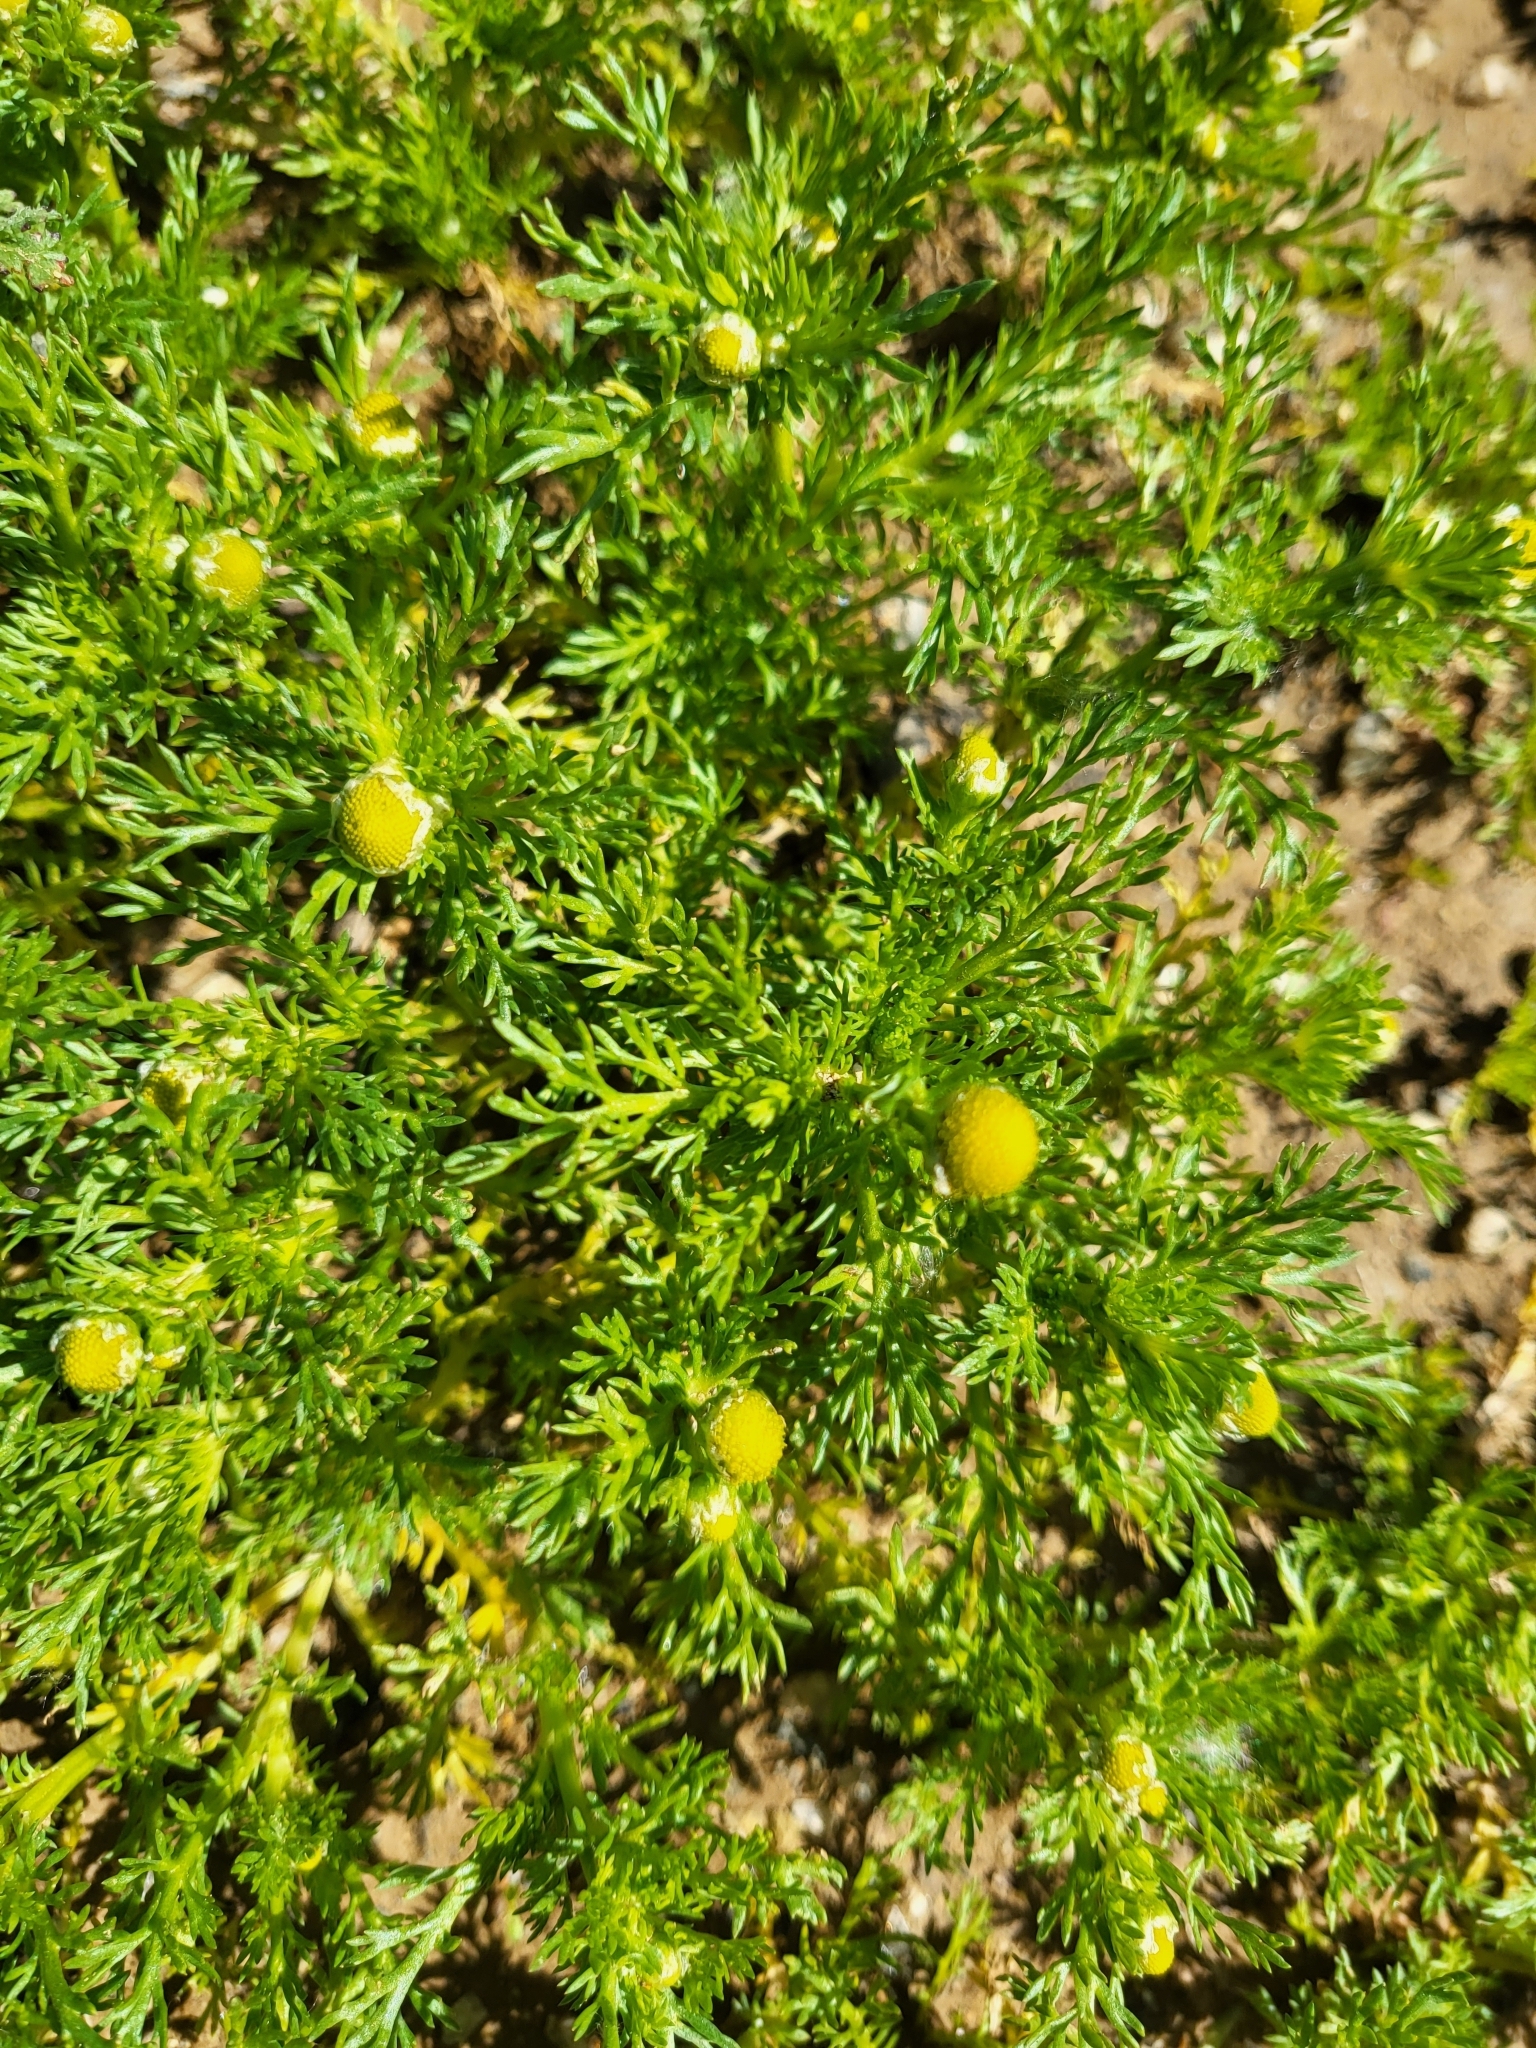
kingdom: Plantae
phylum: Tracheophyta
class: Magnoliopsida
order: Asterales
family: Asteraceae
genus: Matricaria
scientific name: Matricaria discoidea
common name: Disc mayweed
